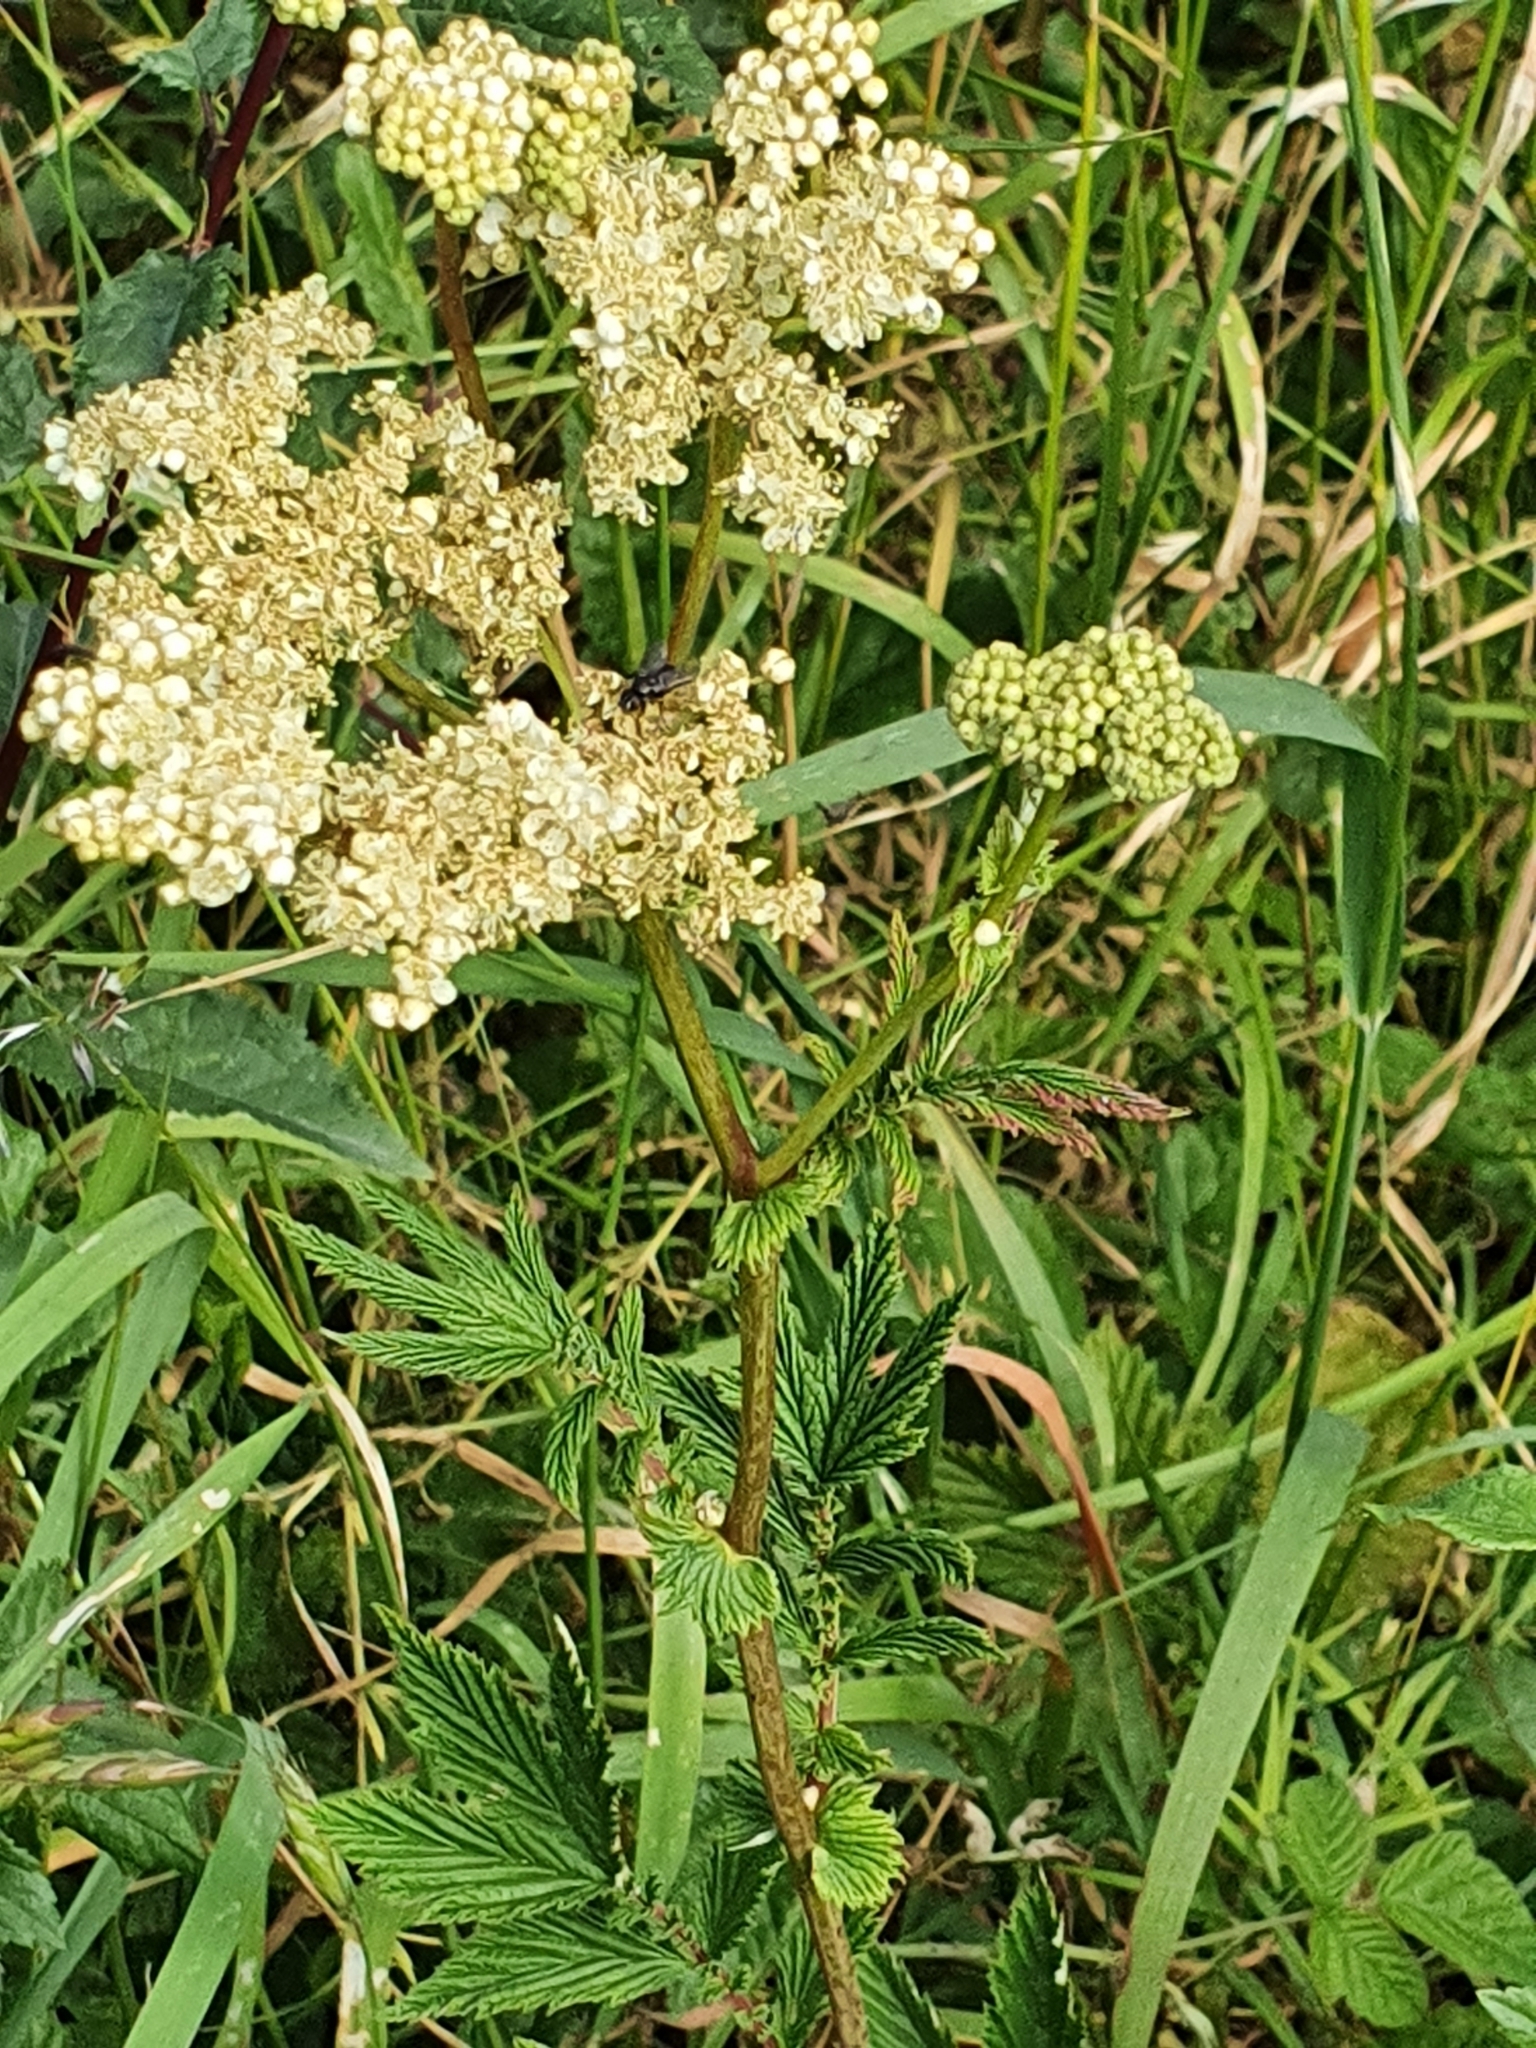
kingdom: Plantae
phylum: Tracheophyta
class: Magnoliopsida
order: Rosales
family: Rosaceae
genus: Filipendula
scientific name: Filipendula ulmaria
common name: Meadowsweet
